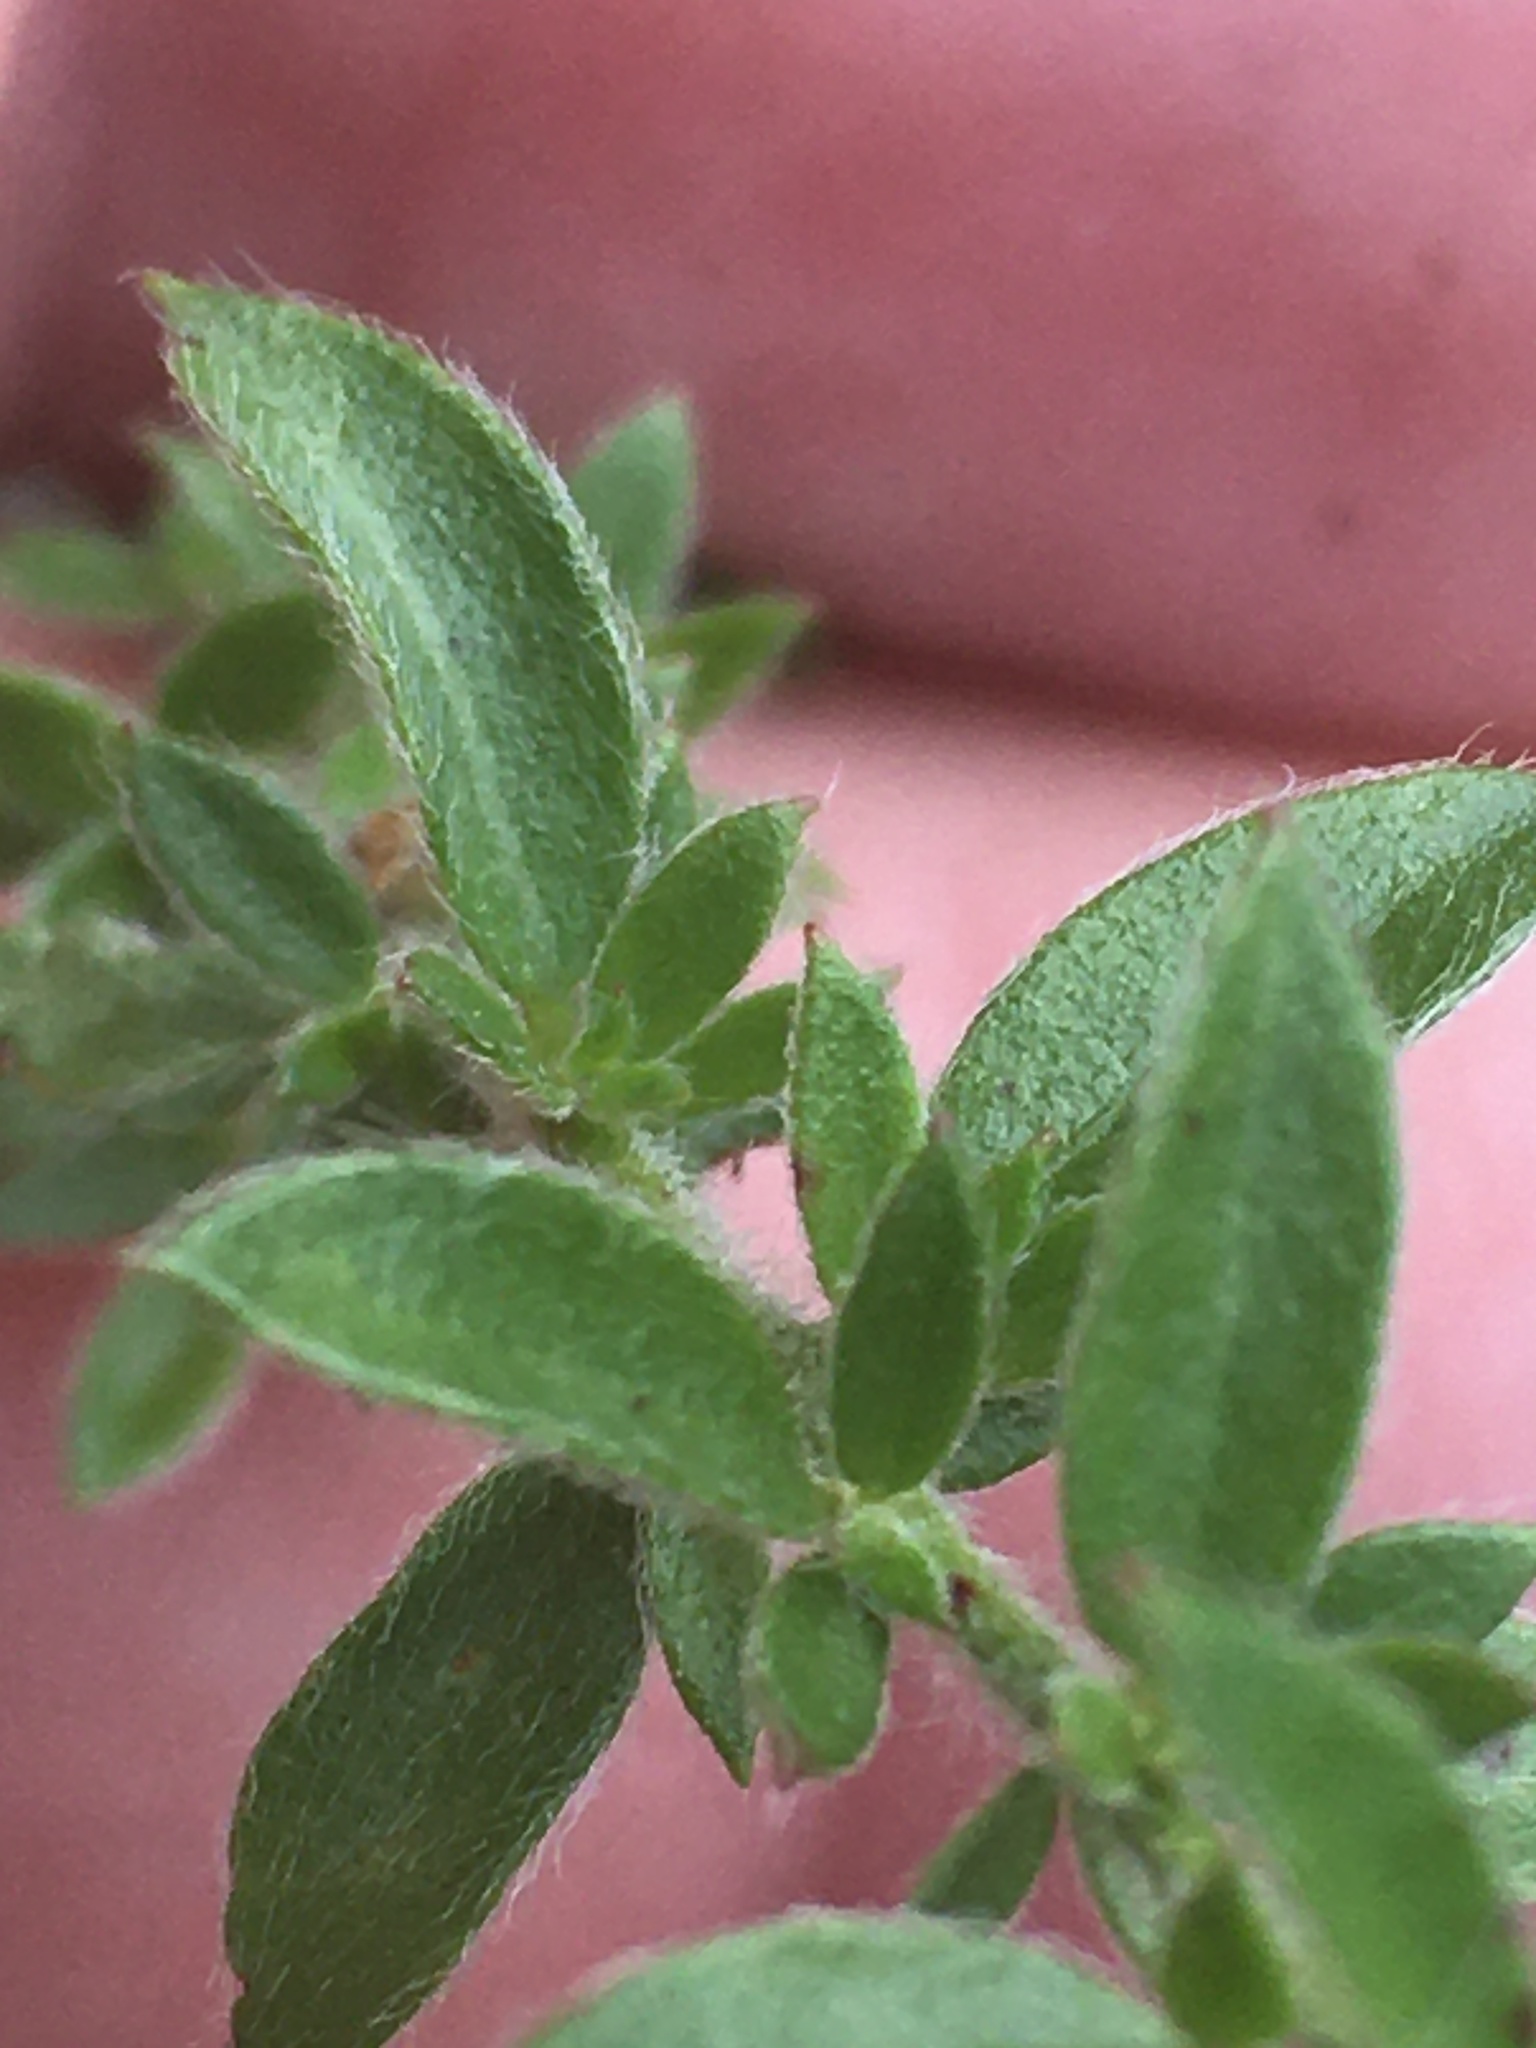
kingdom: Plantae
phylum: Tracheophyta
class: Magnoliopsida
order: Malvales
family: Cistaceae
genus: Lechea
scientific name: Lechea mucronata
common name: Hairy pinweed
